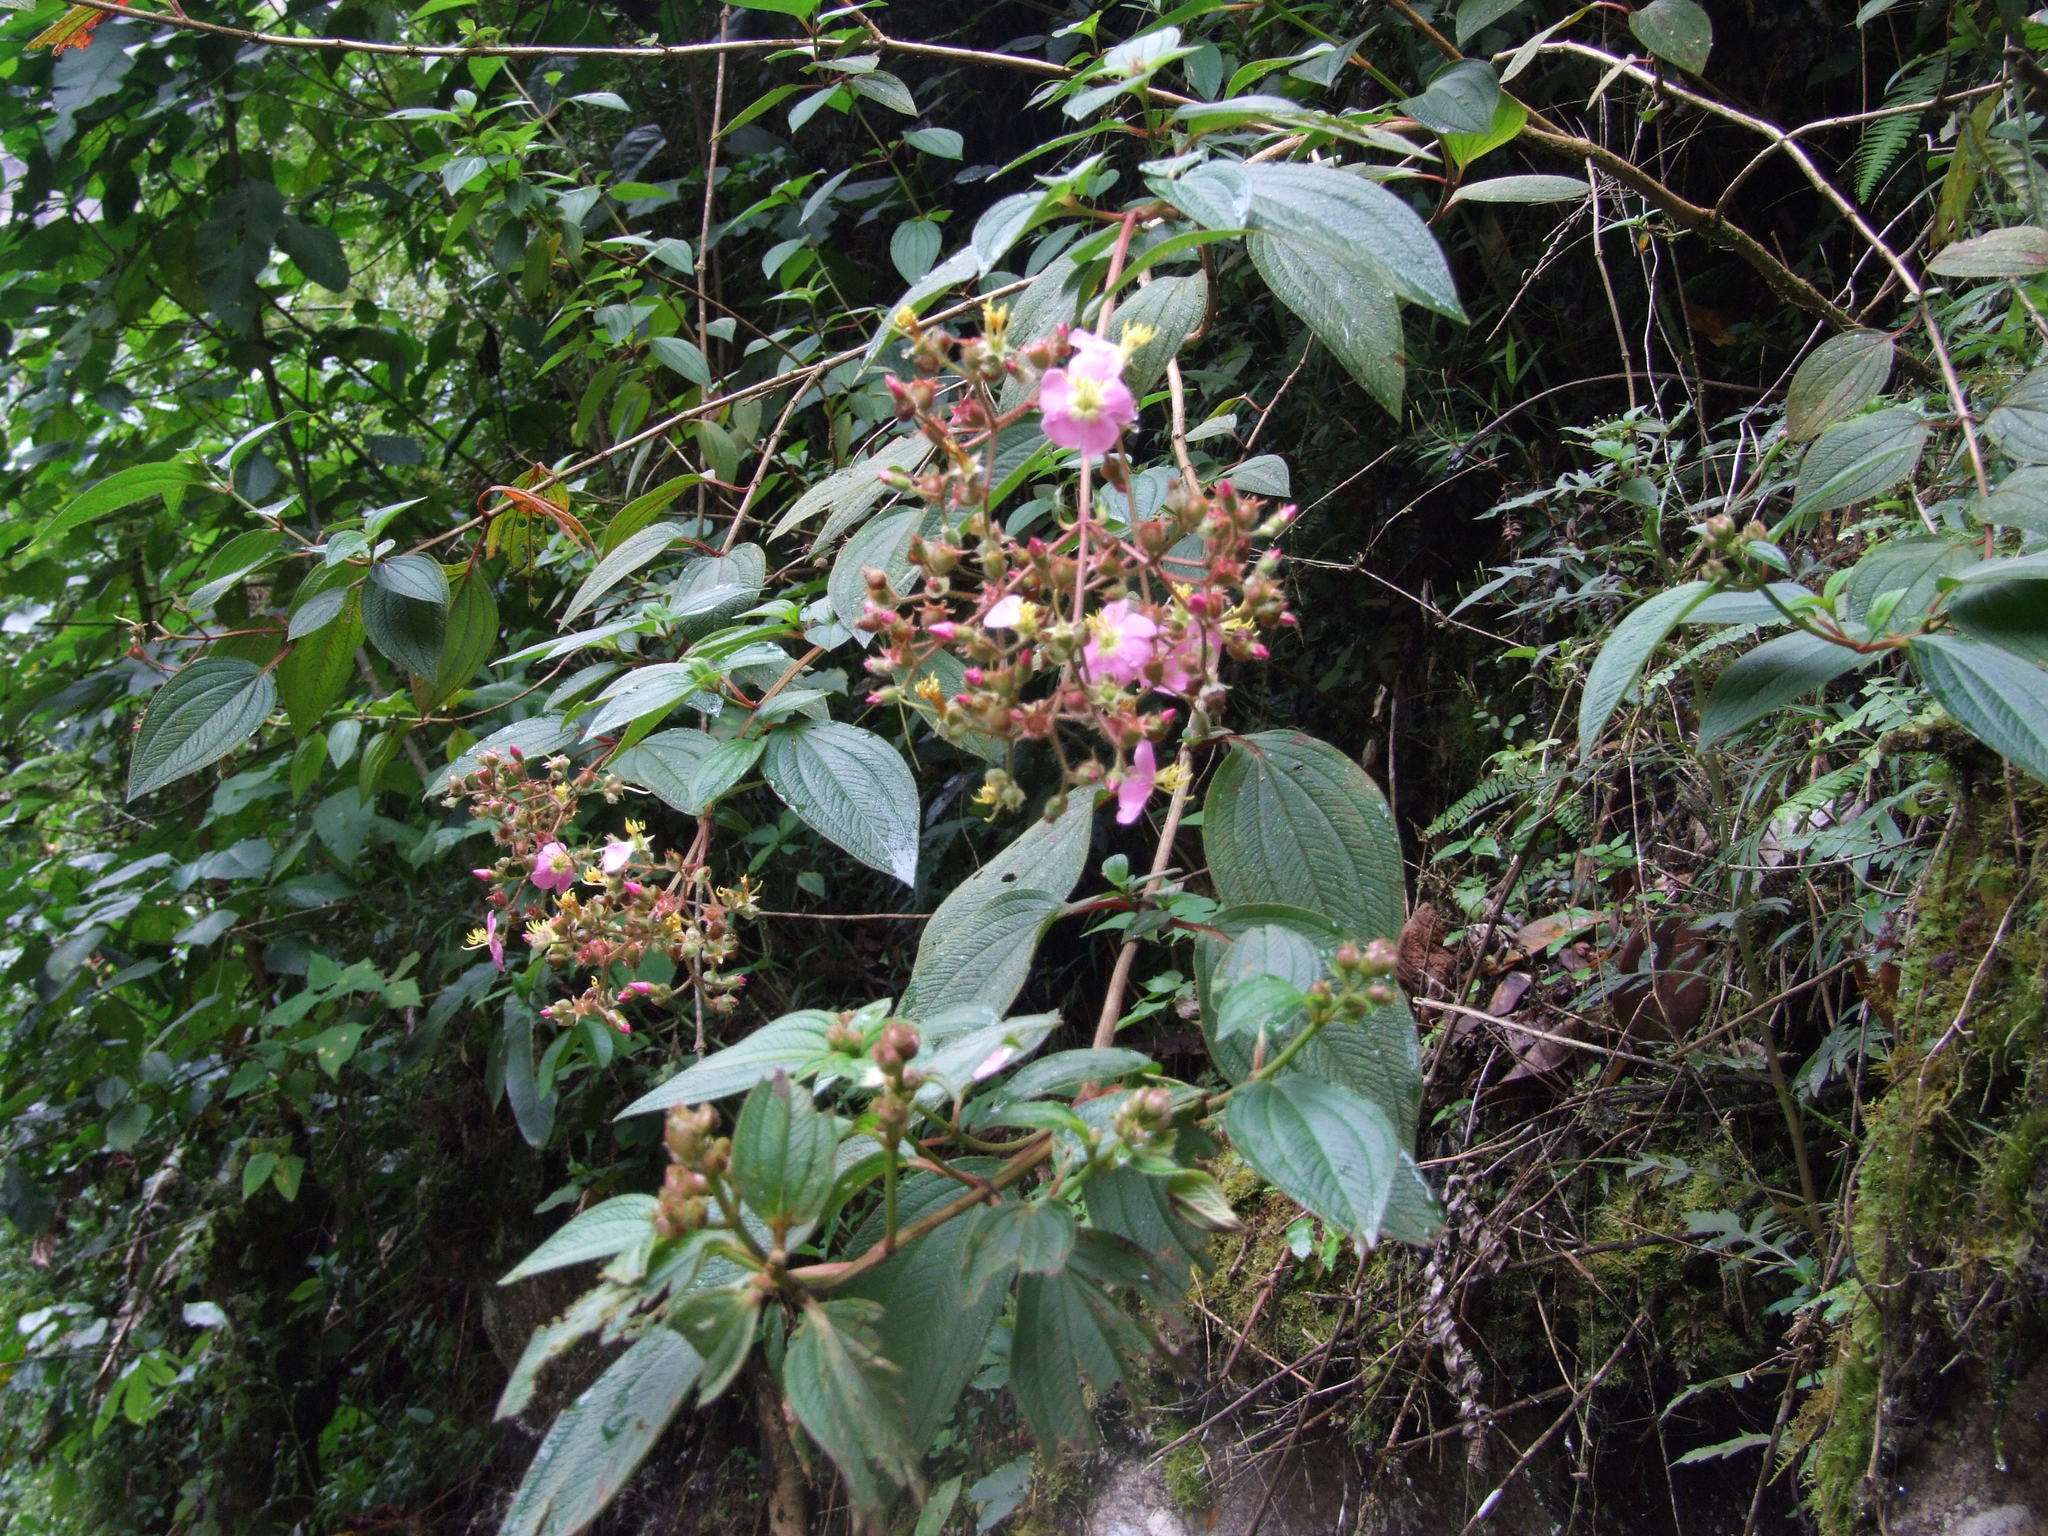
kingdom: Plantae
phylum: Tracheophyta
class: Magnoliopsida
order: Myrtales
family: Melastomataceae
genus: Chaetogastra
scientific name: Chaetogastra incarum
